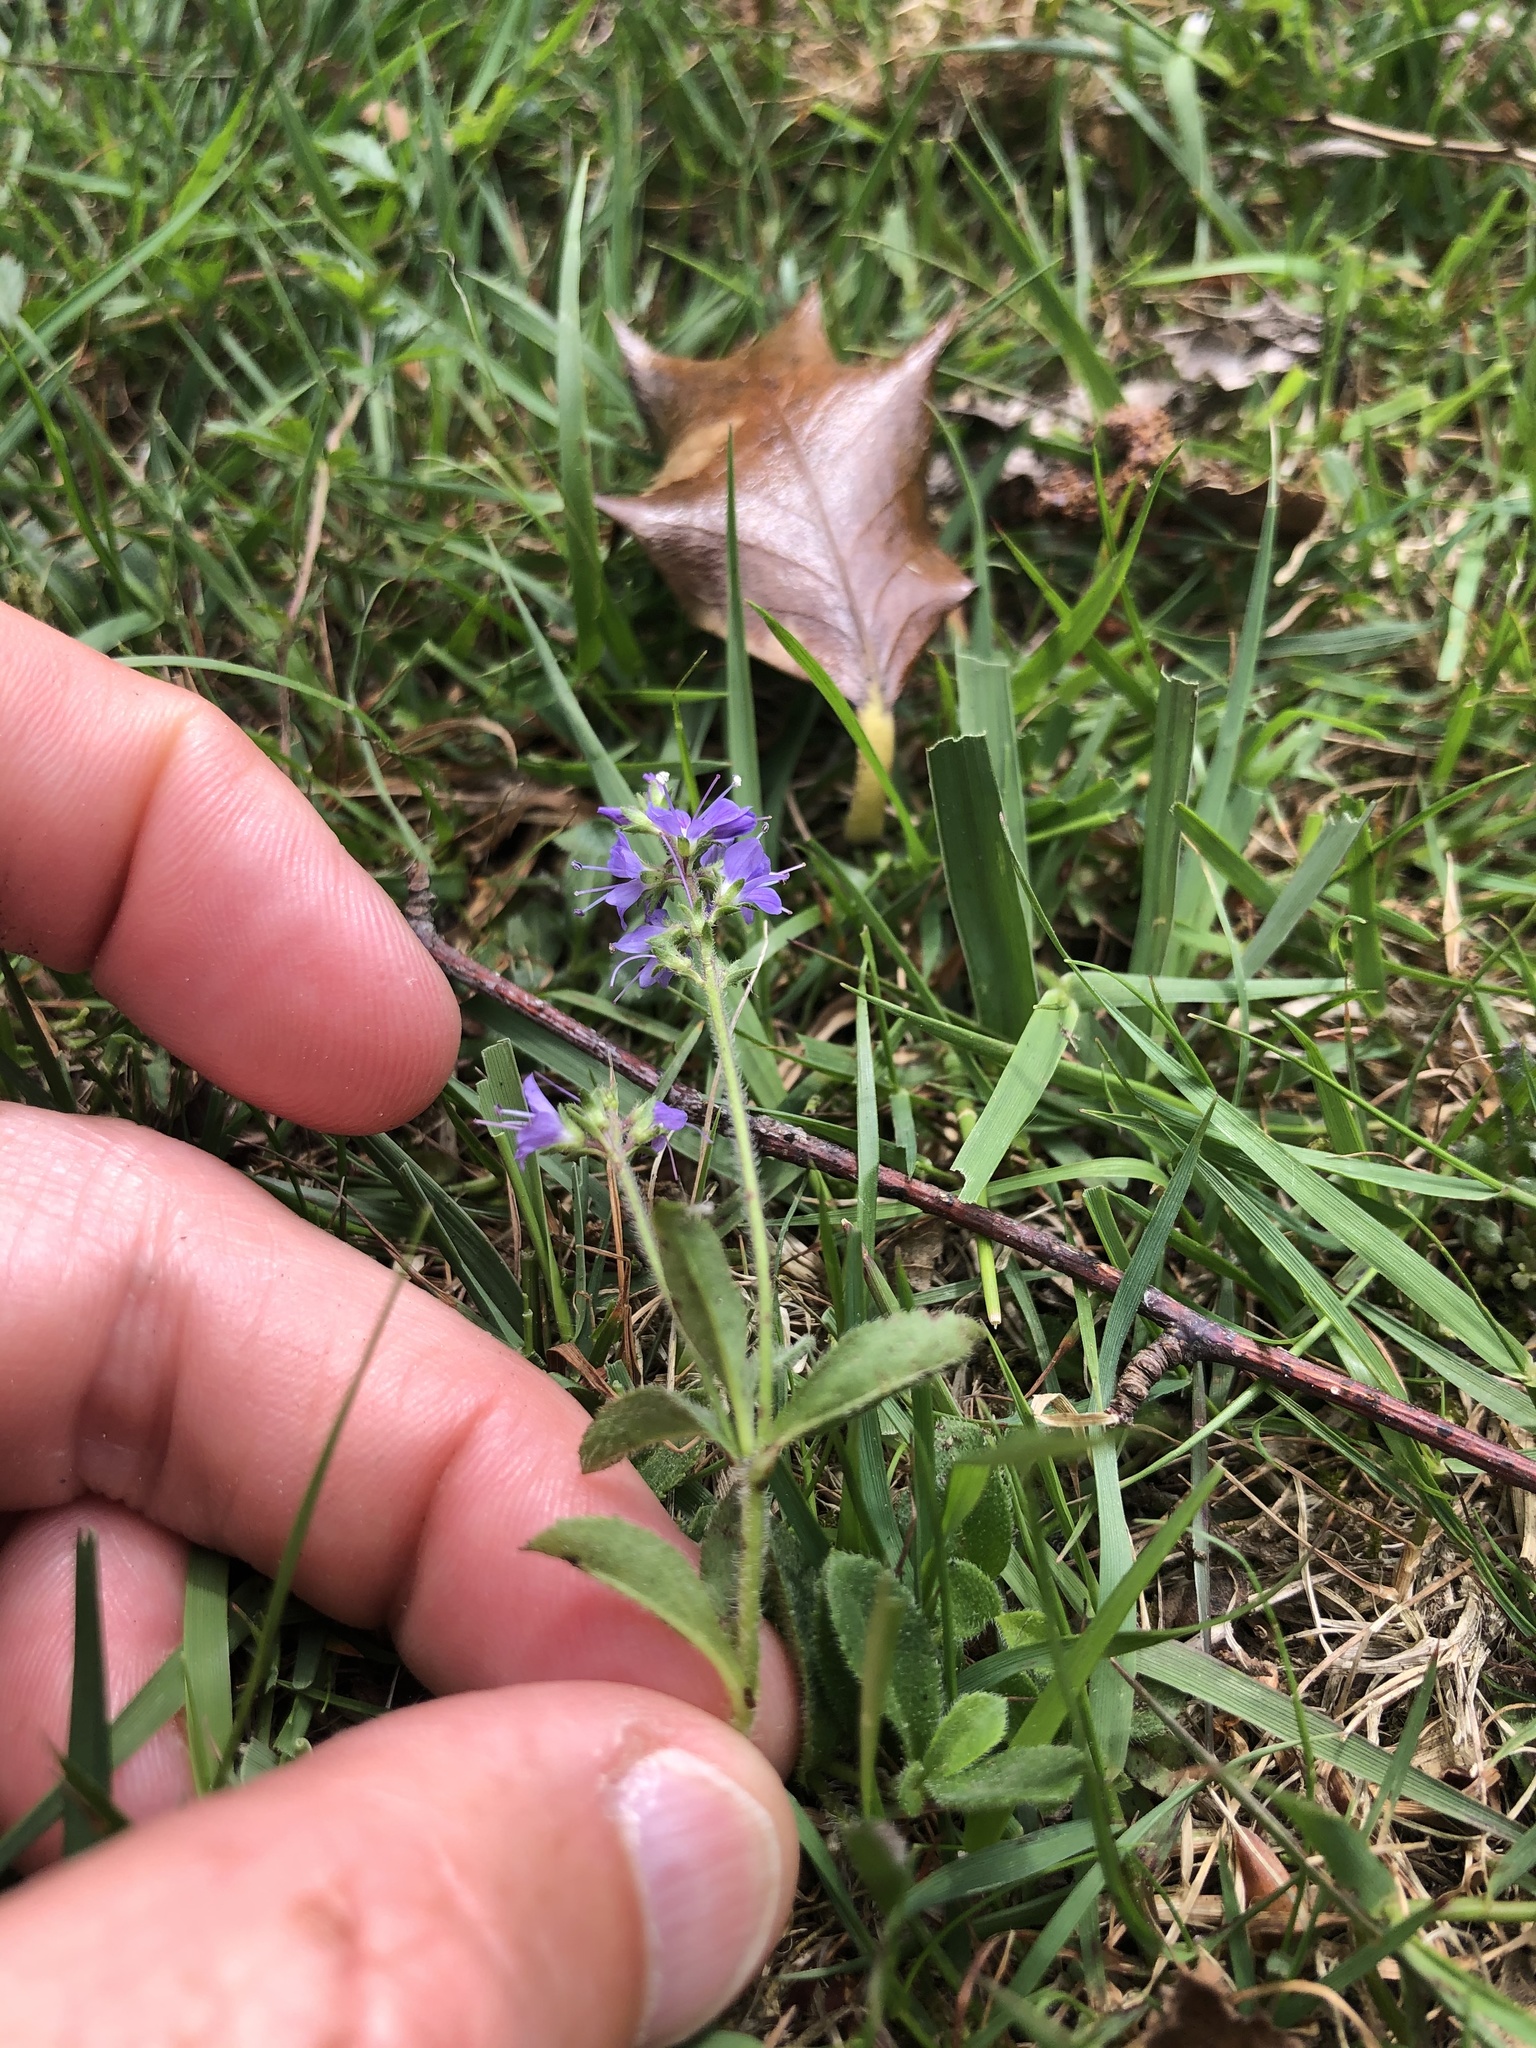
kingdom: Plantae
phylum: Tracheophyta
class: Magnoliopsida
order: Lamiales
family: Plantaginaceae
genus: Veronica
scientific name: Veronica officinalis
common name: Common speedwell
